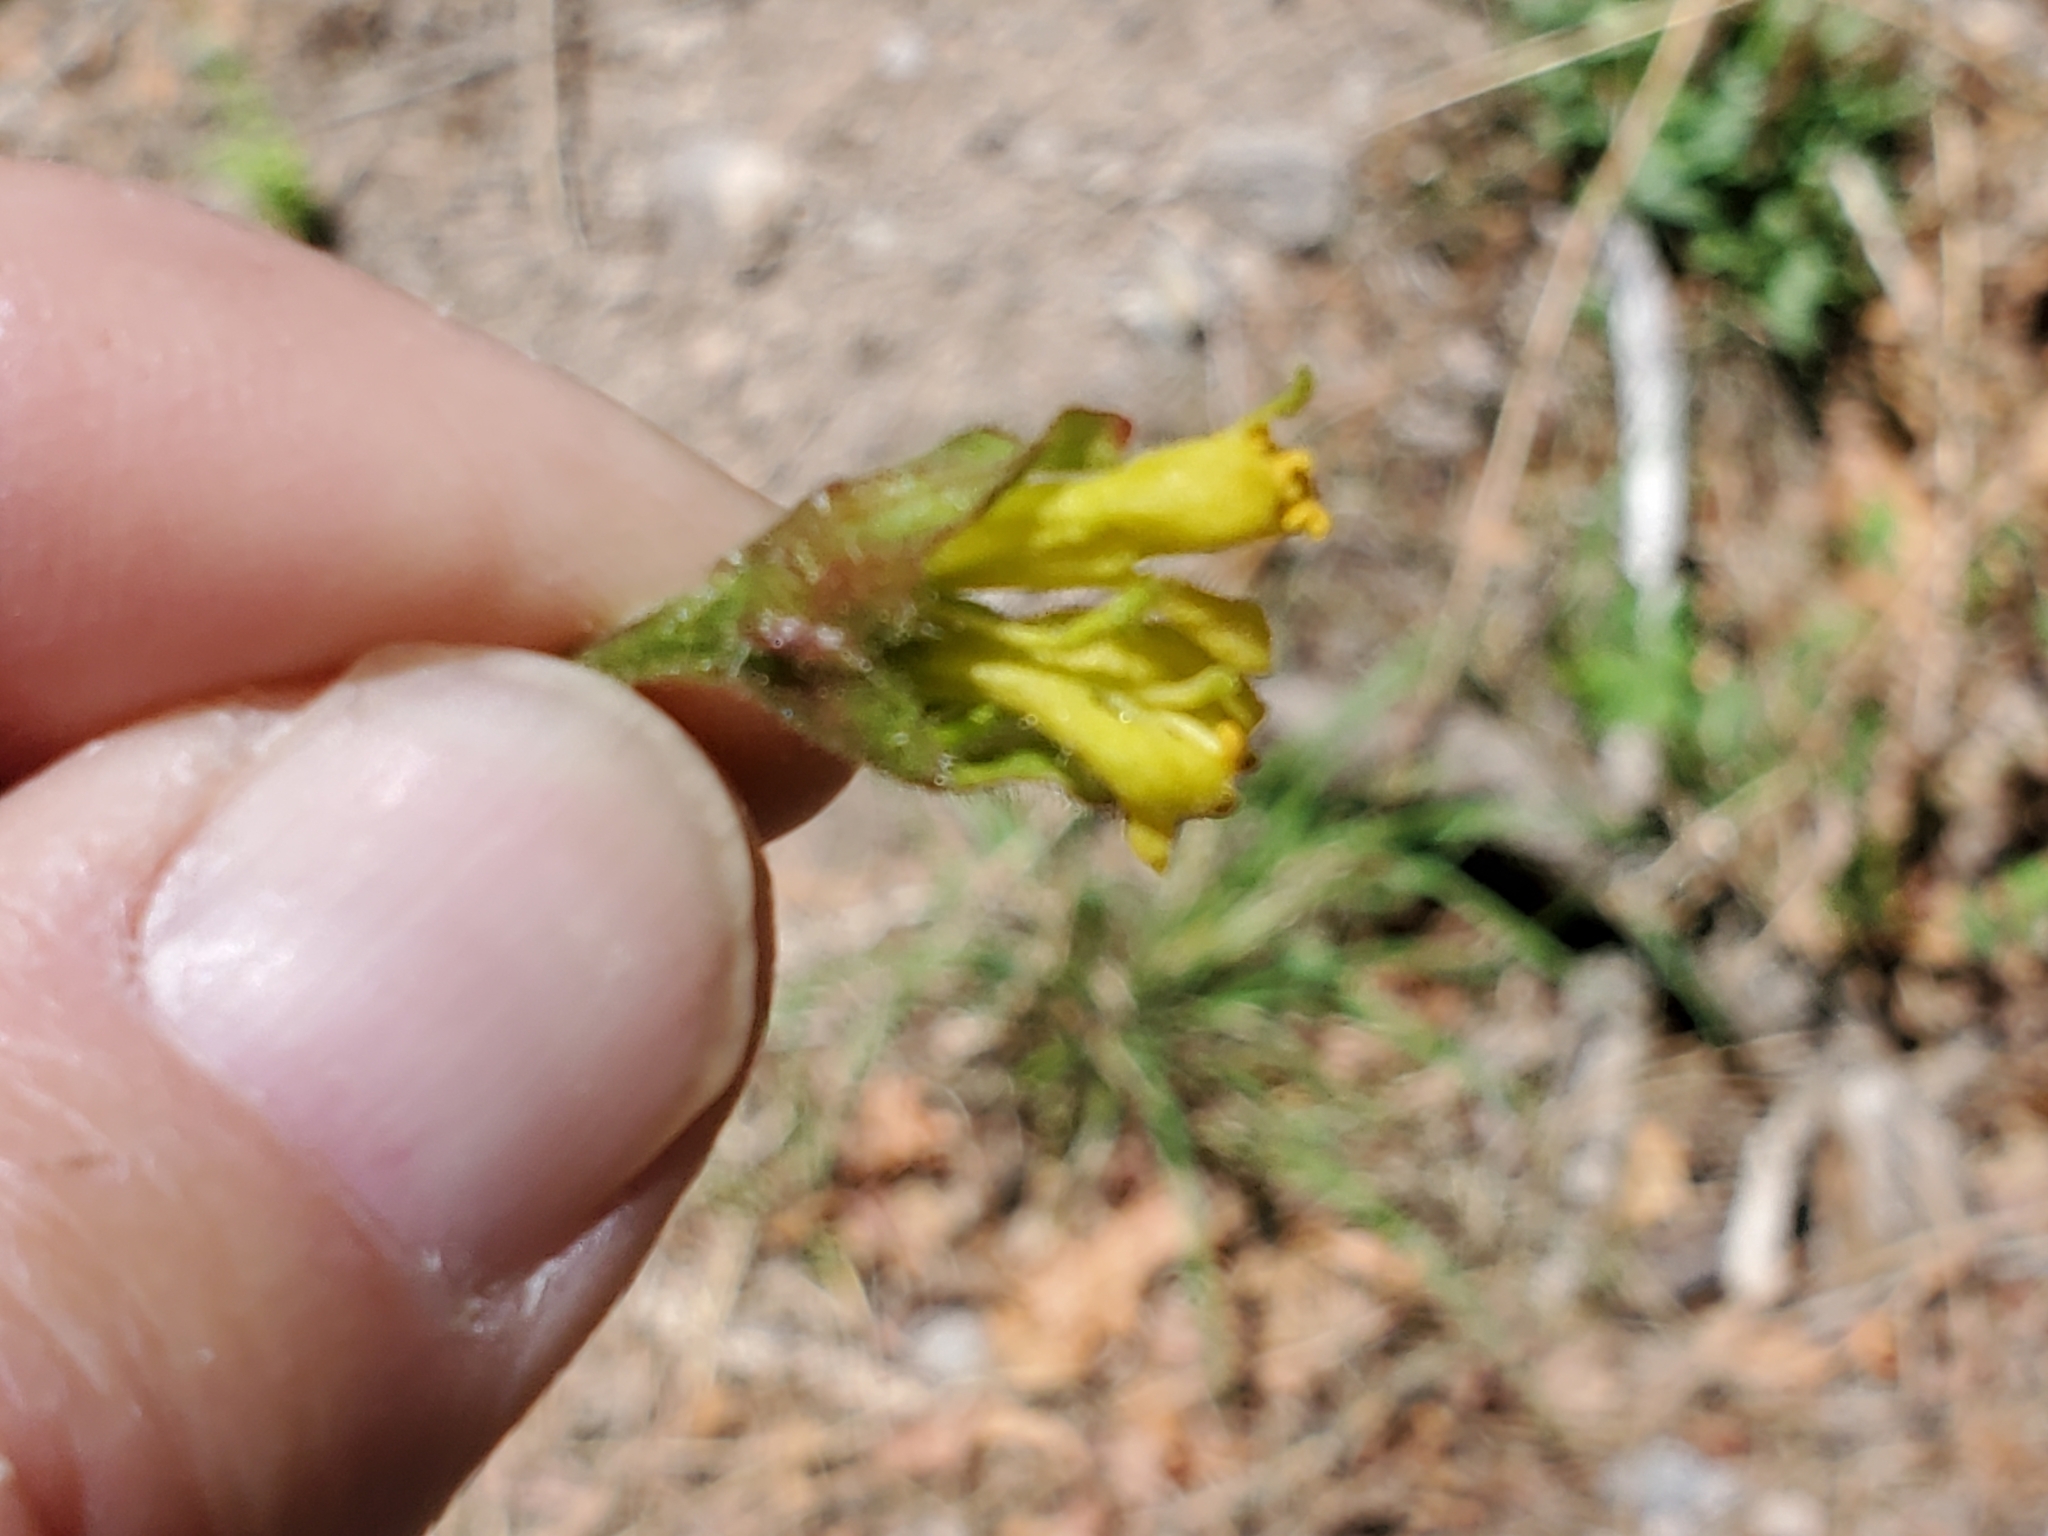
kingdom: Plantae
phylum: Tracheophyta
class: Magnoliopsida
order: Dipsacales
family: Caprifoliaceae
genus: Lonicera
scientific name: Lonicera involucrata
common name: Californian honeysuckle
